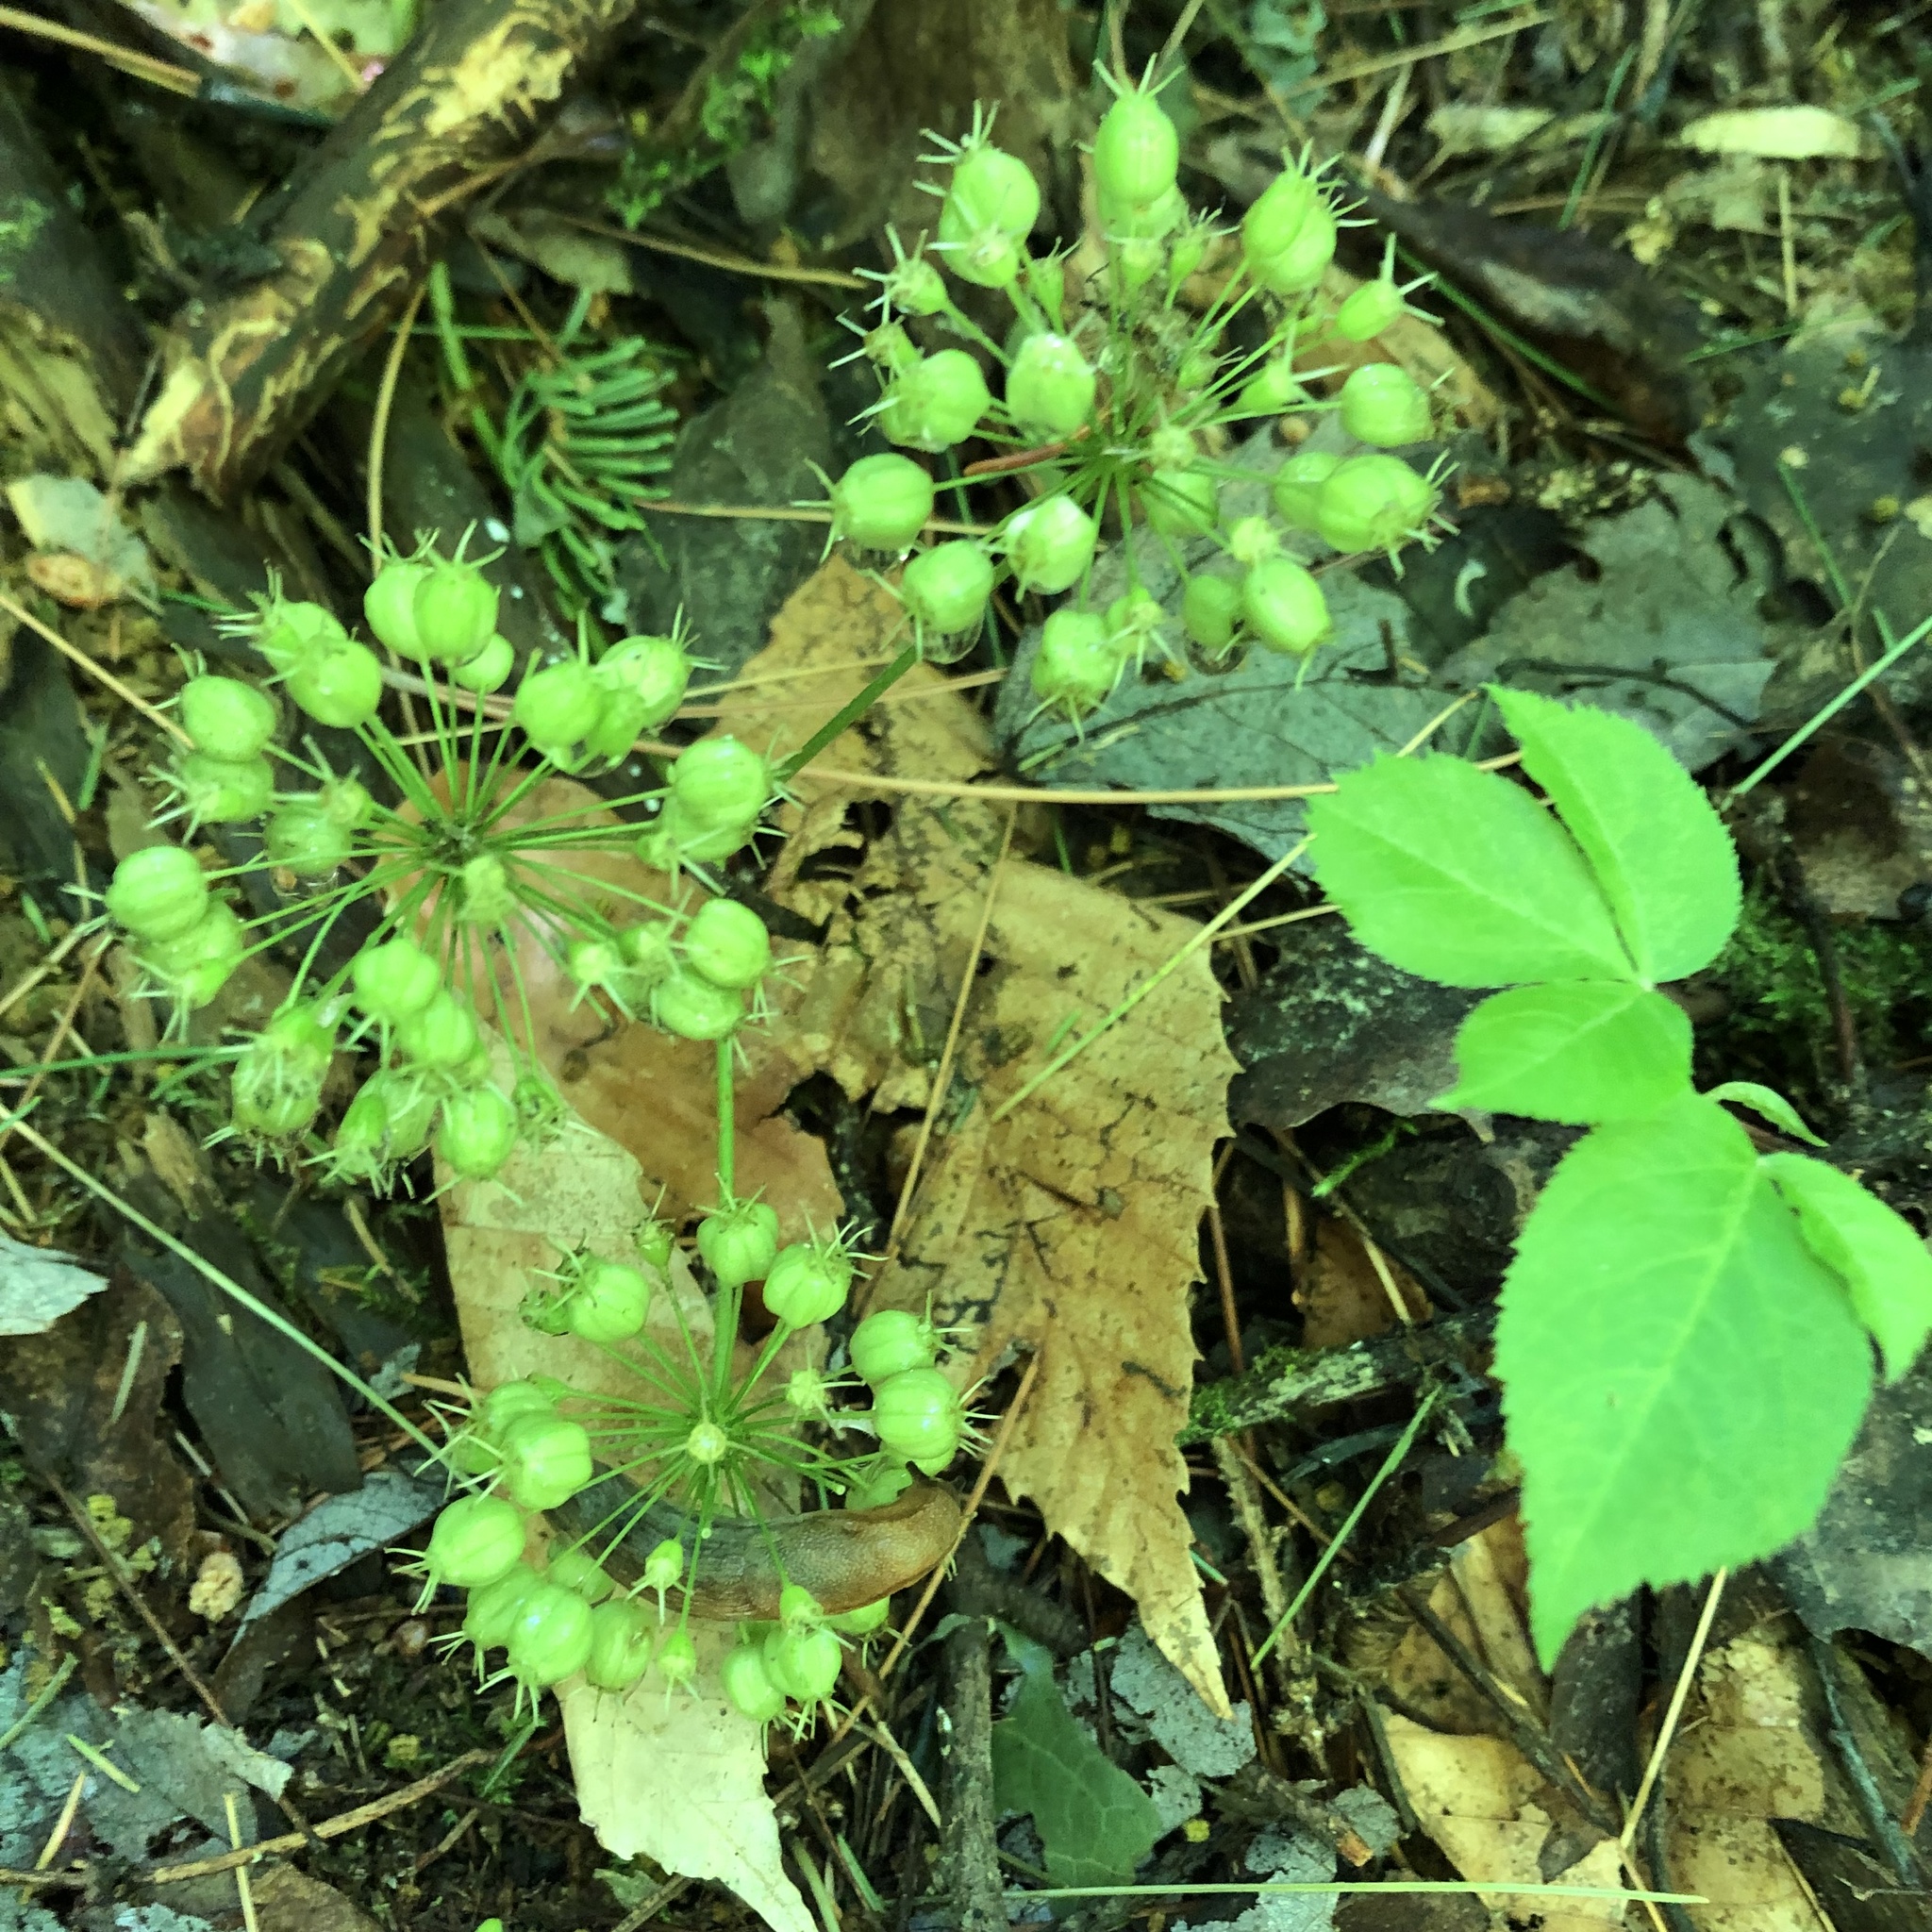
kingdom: Plantae
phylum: Tracheophyta
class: Magnoliopsida
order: Apiales
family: Araliaceae
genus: Aralia
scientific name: Aralia nudicaulis
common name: Wild sarsaparilla
